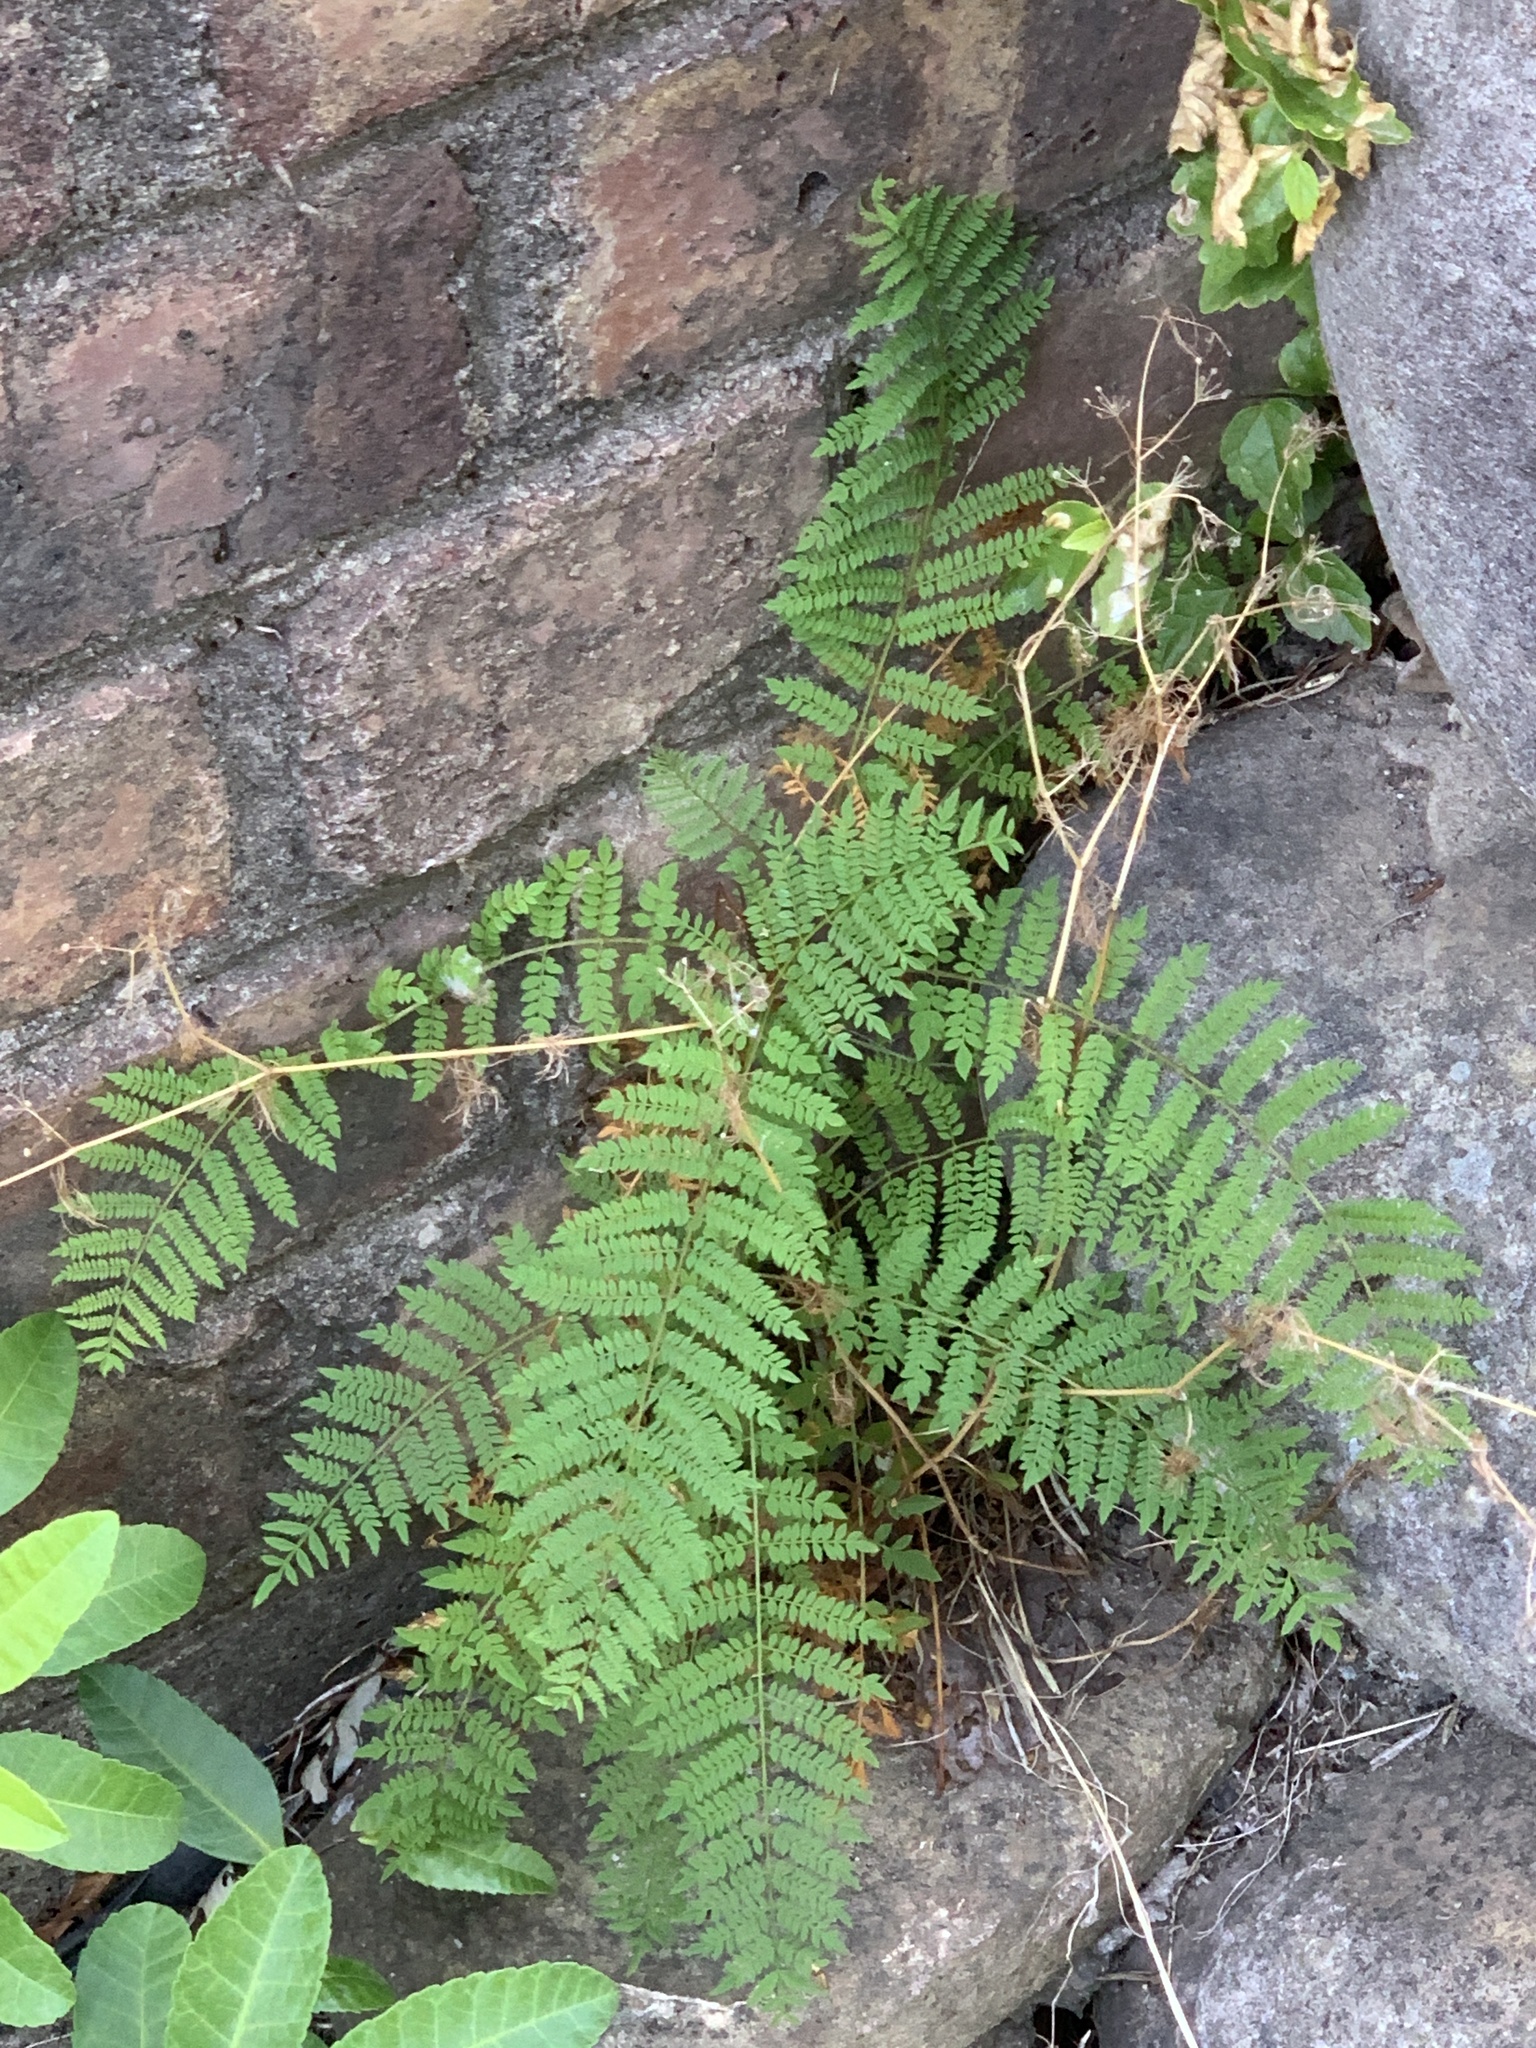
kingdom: Plantae
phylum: Tracheophyta
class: Magnoliopsida
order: Lamiales
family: Bignoniaceae
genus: Jacaranda
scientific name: Jacaranda mimosifolia
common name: Black poui
